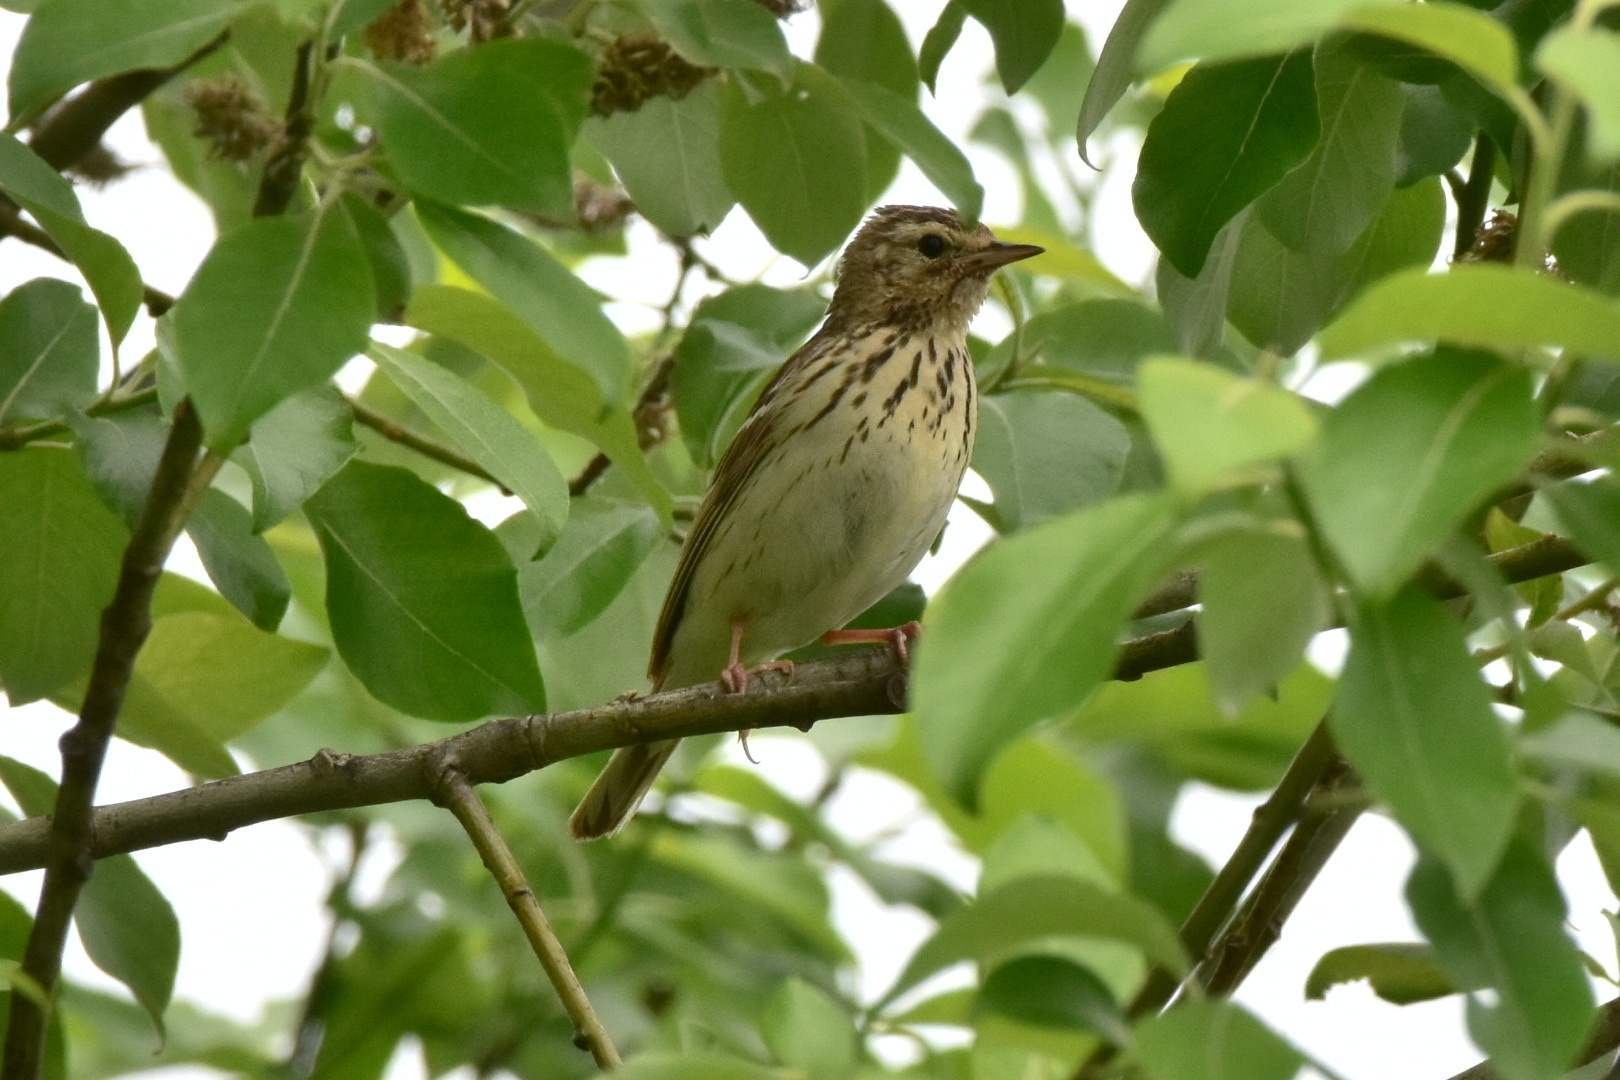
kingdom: Animalia
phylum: Chordata
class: Aves
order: Passeriformes
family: Motacillidae
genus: Anthus
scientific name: Anthus trivialis
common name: Tree pipit
